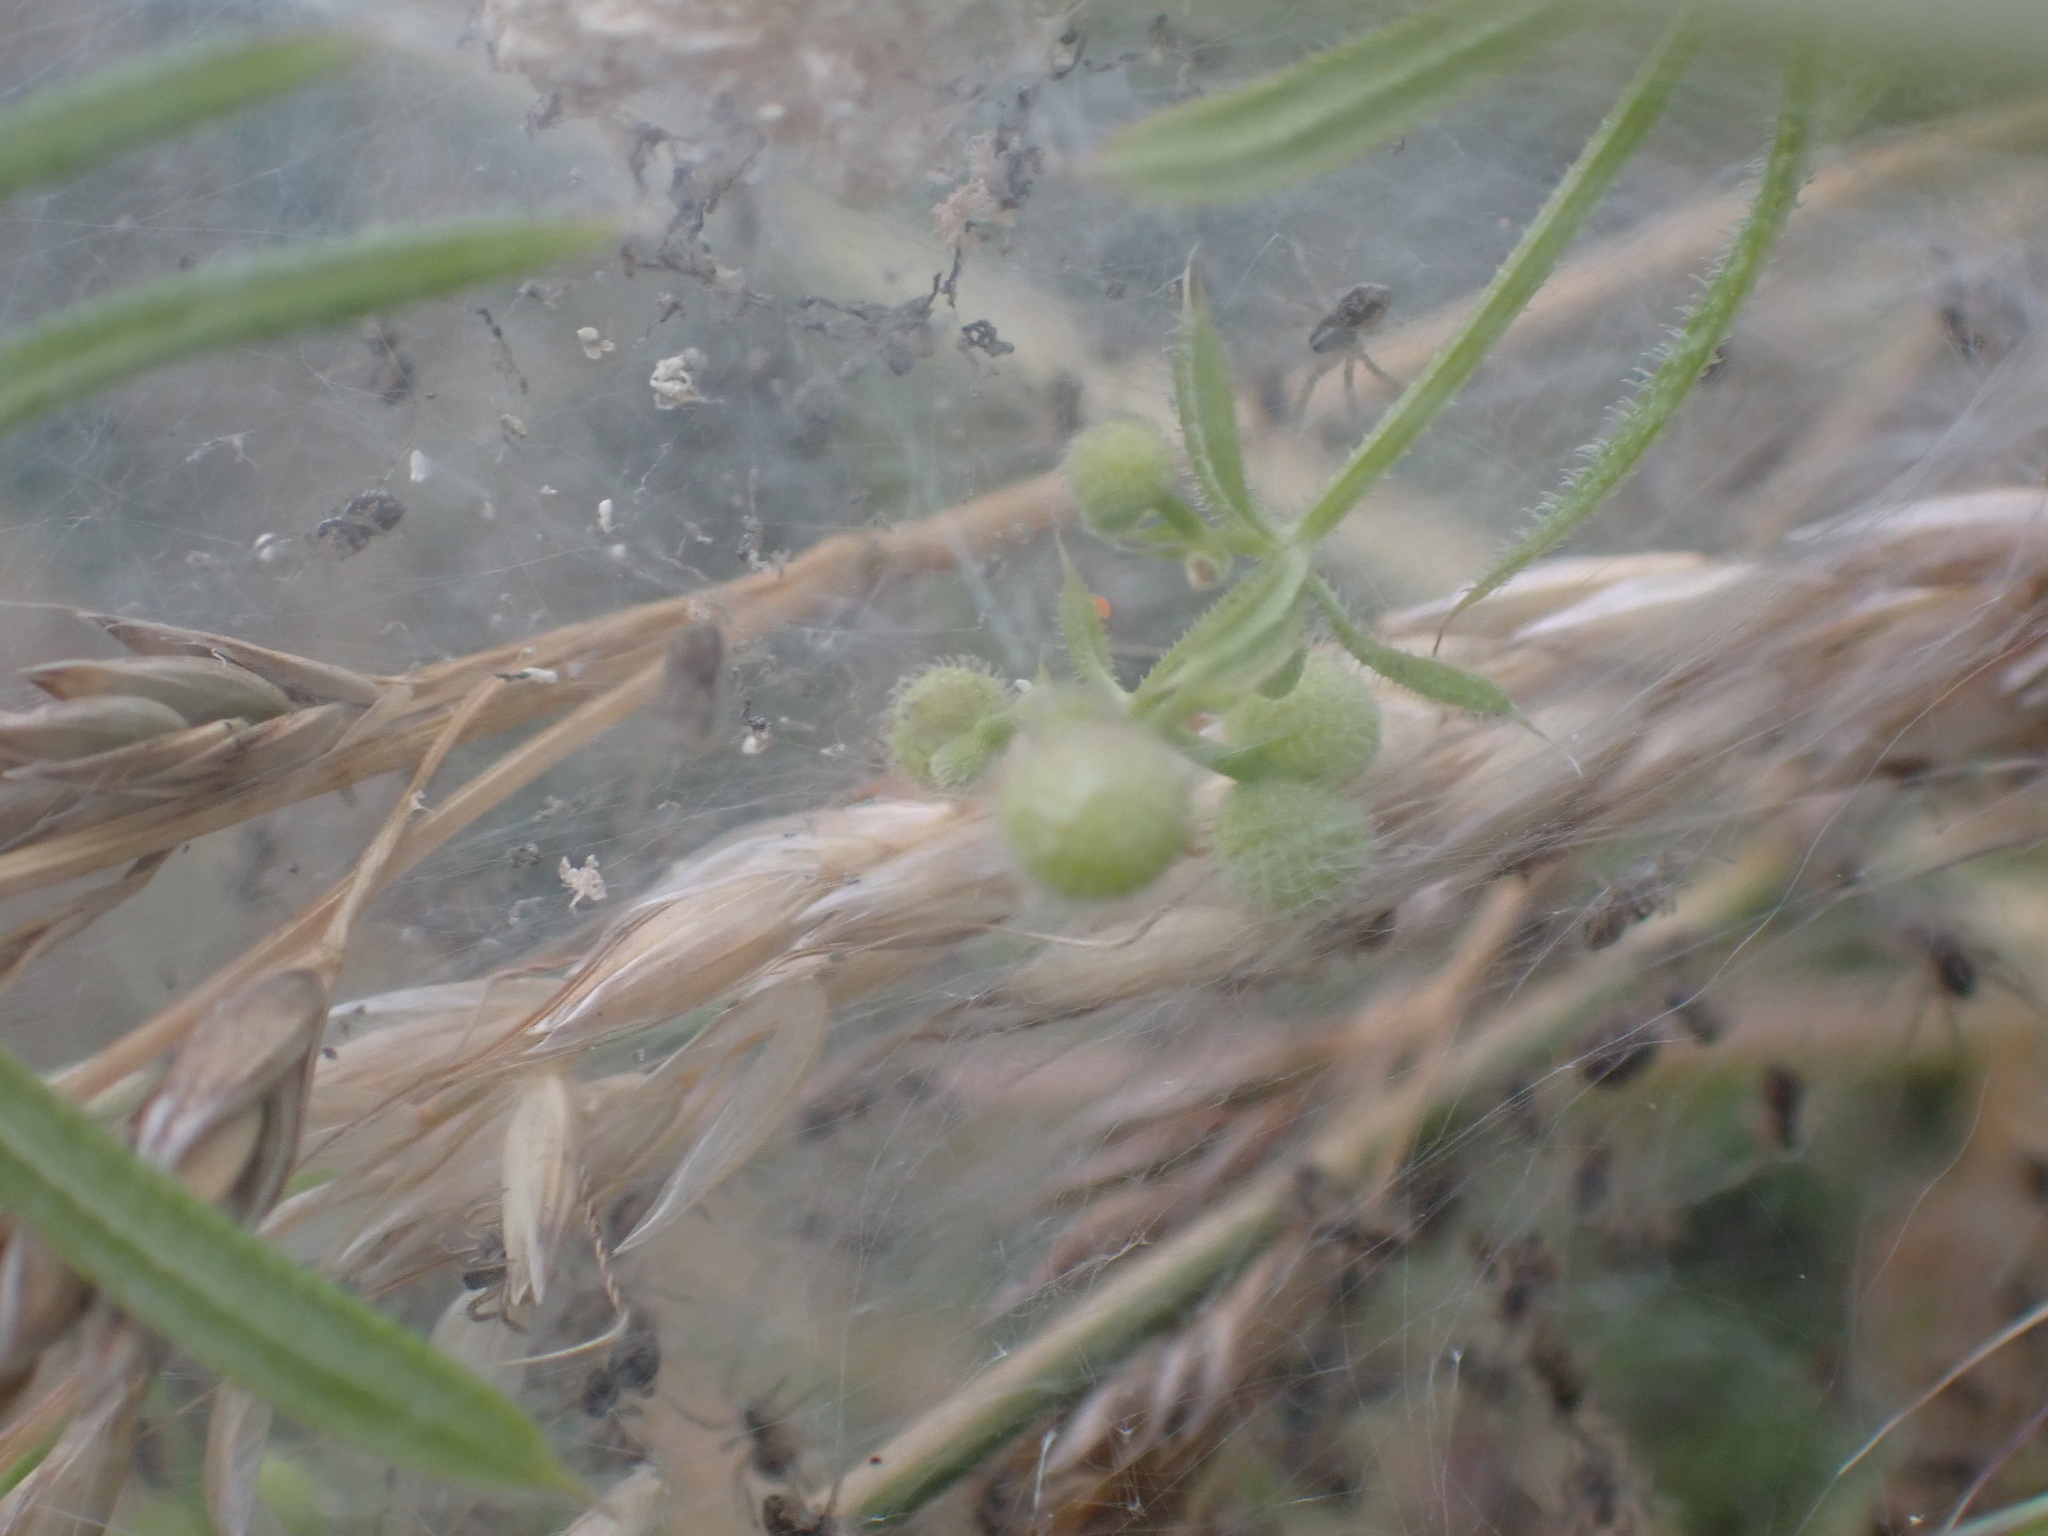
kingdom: Animalia
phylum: Arthropoda
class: Arachnida
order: Araneae
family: Pisauridae
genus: Pisaura
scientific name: Pisaura mirabilis
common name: Tent spider
